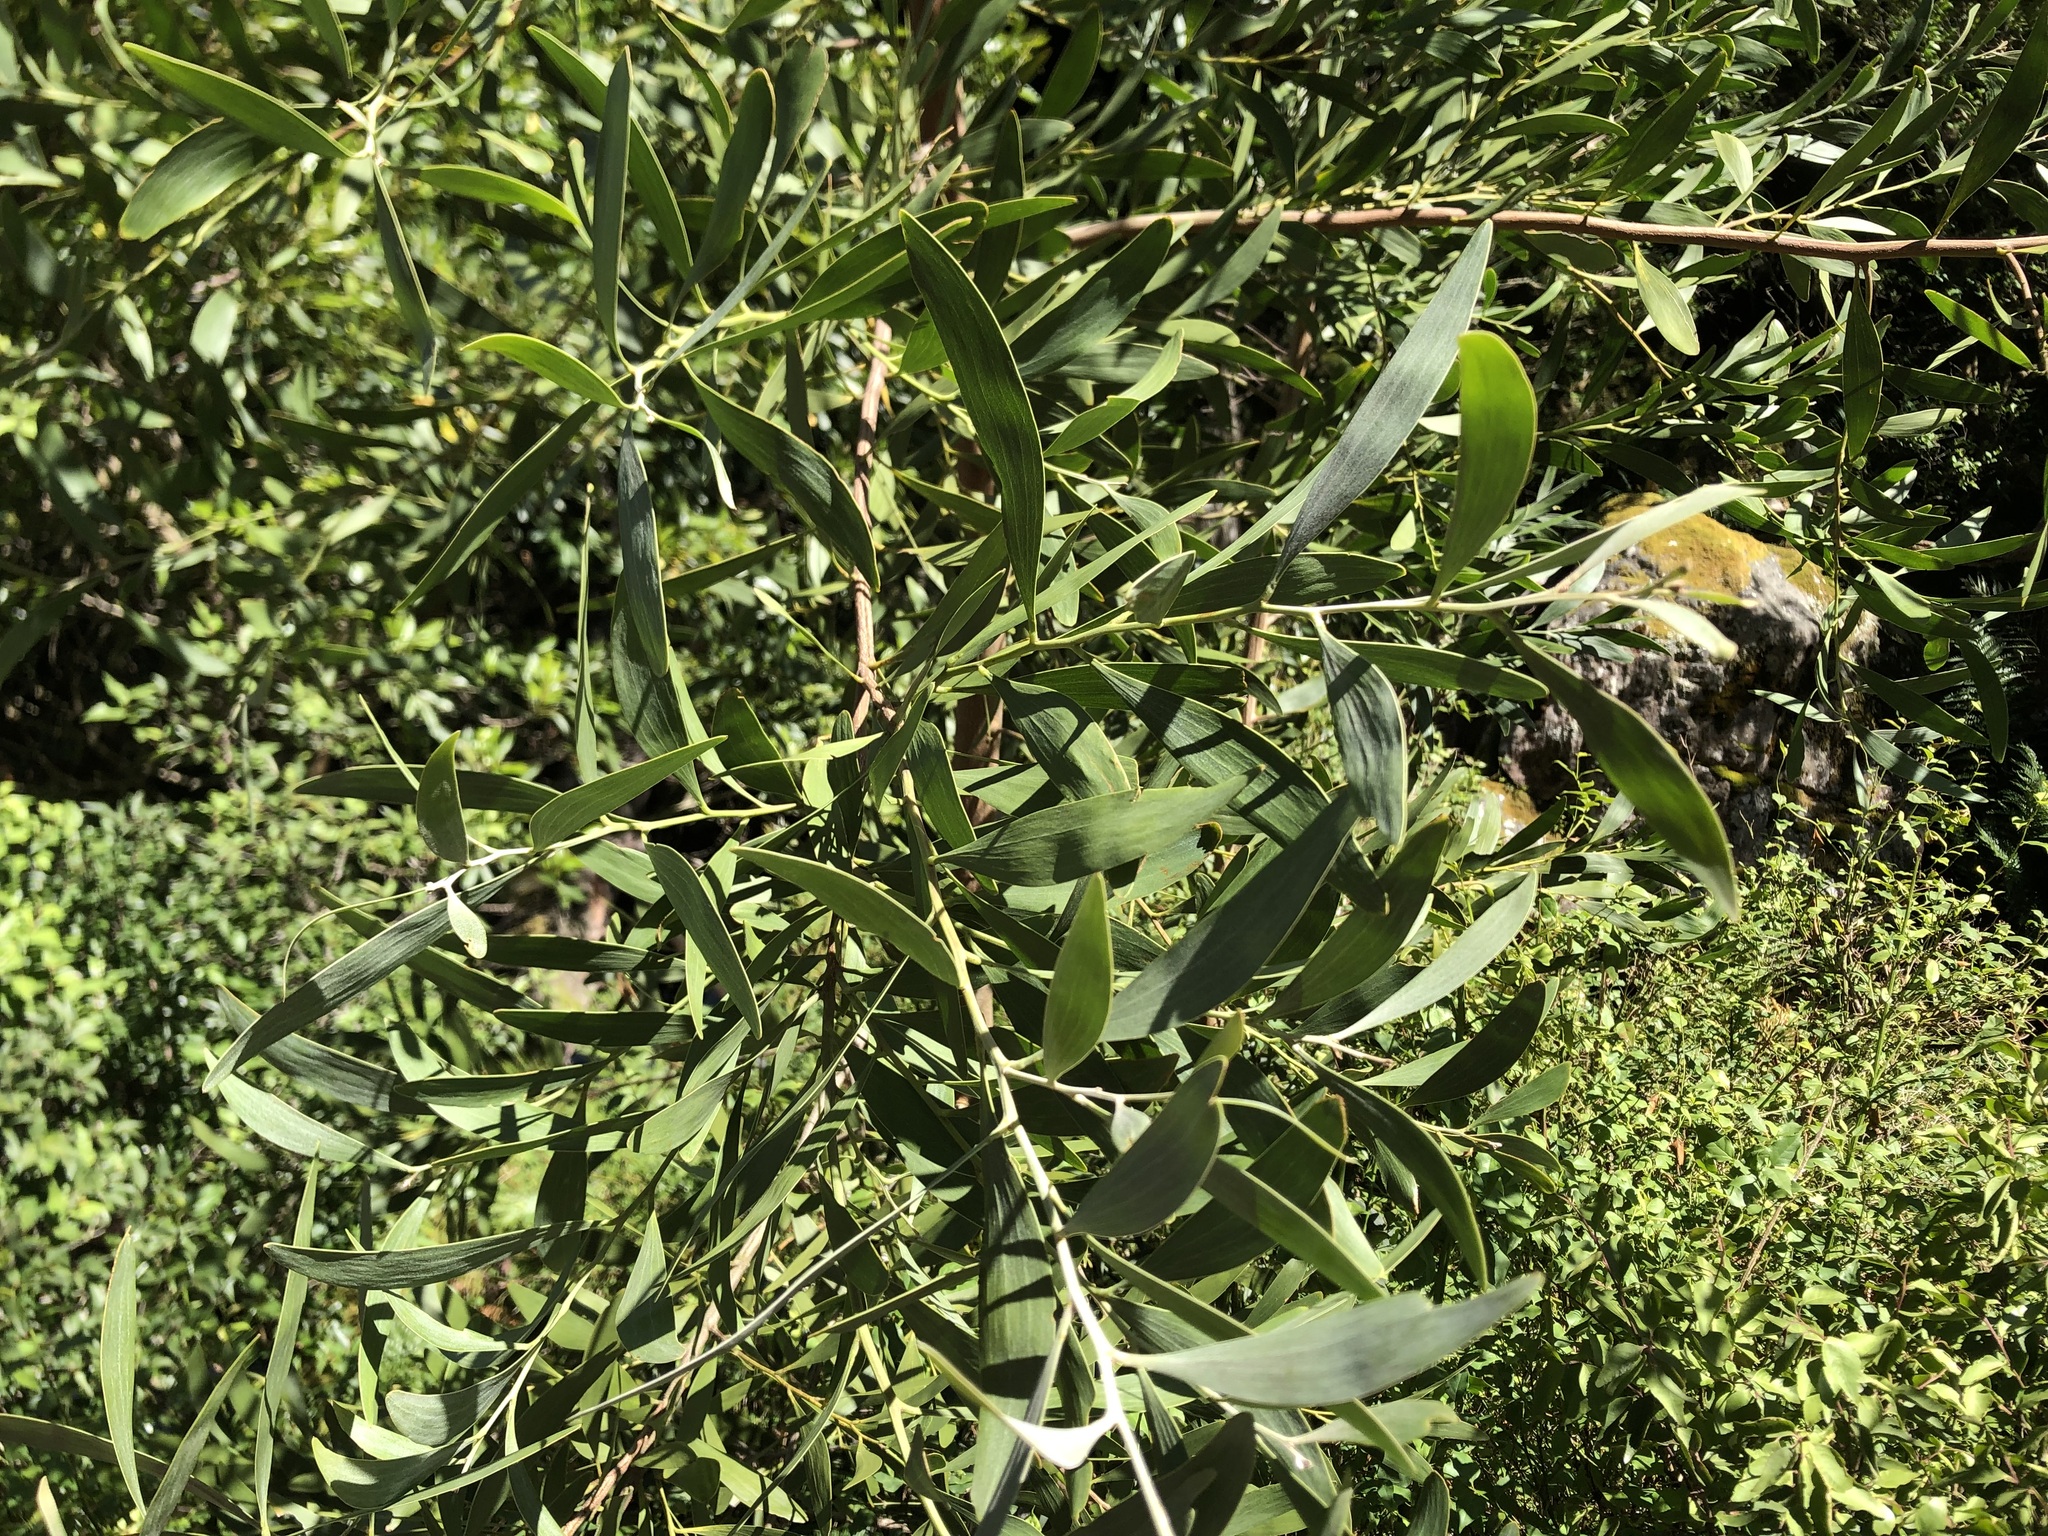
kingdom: Plantae
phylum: Tracheophyta
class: Magnoliopsida
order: Fabales
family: Fabaceae
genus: Acacia
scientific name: Acacia melanoxylon
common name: Blackwood
